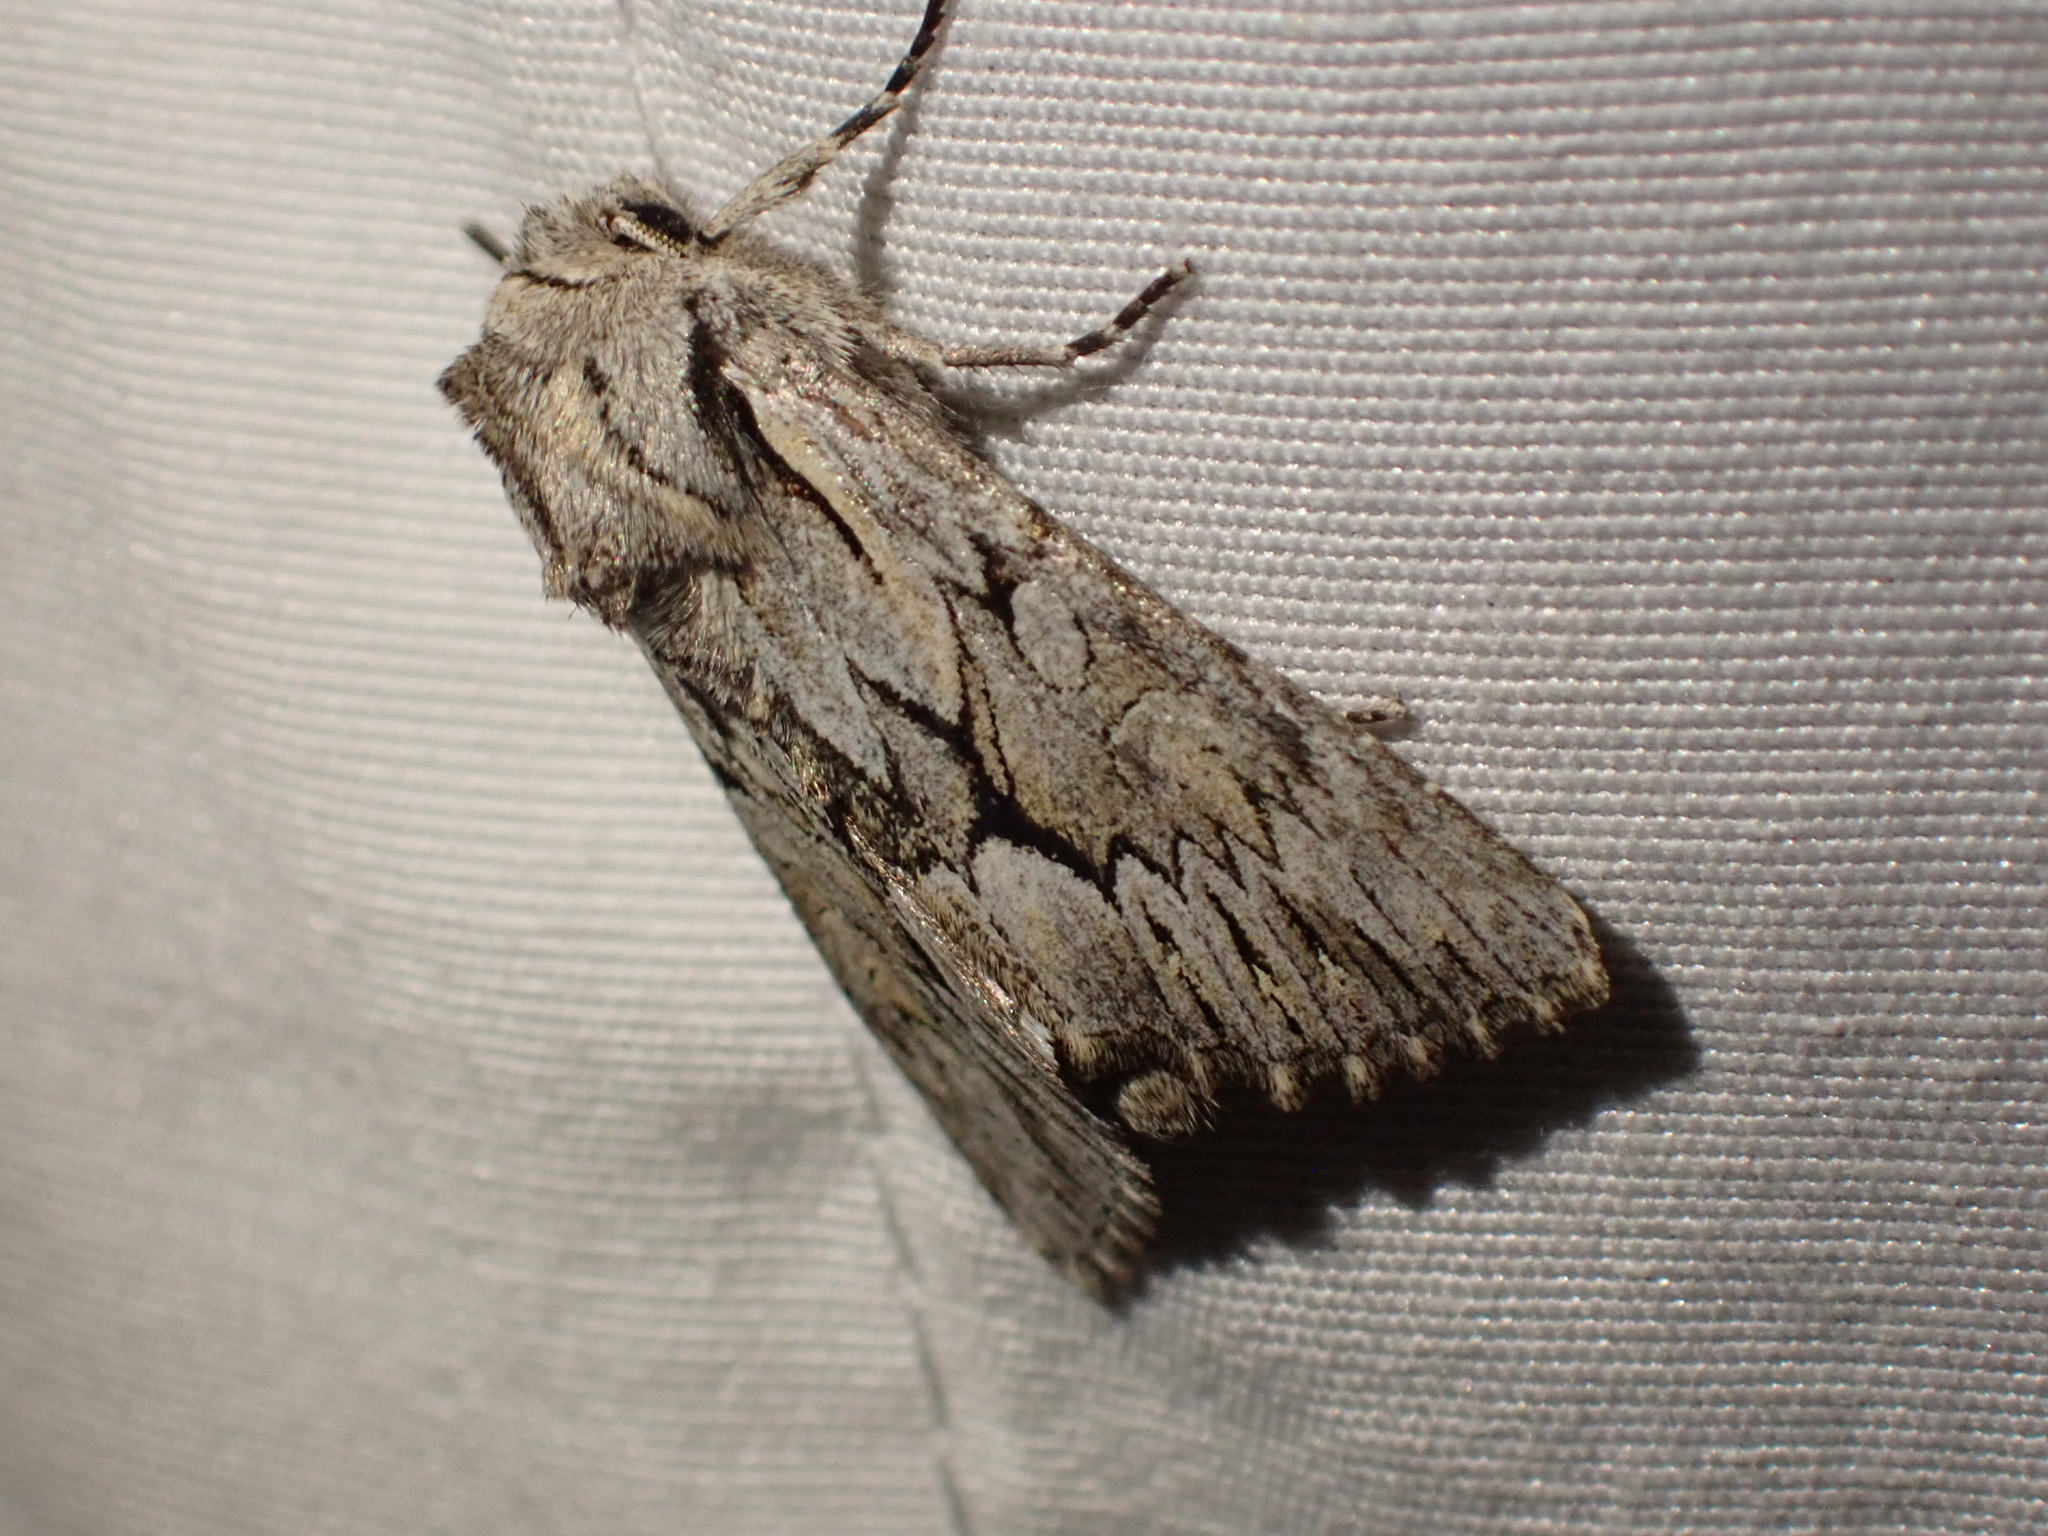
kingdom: Animalia
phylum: Arthropoda
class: Insecta
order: Lepidoptera
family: Noctuidae
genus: Fishia
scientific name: Fishia yosemitae
